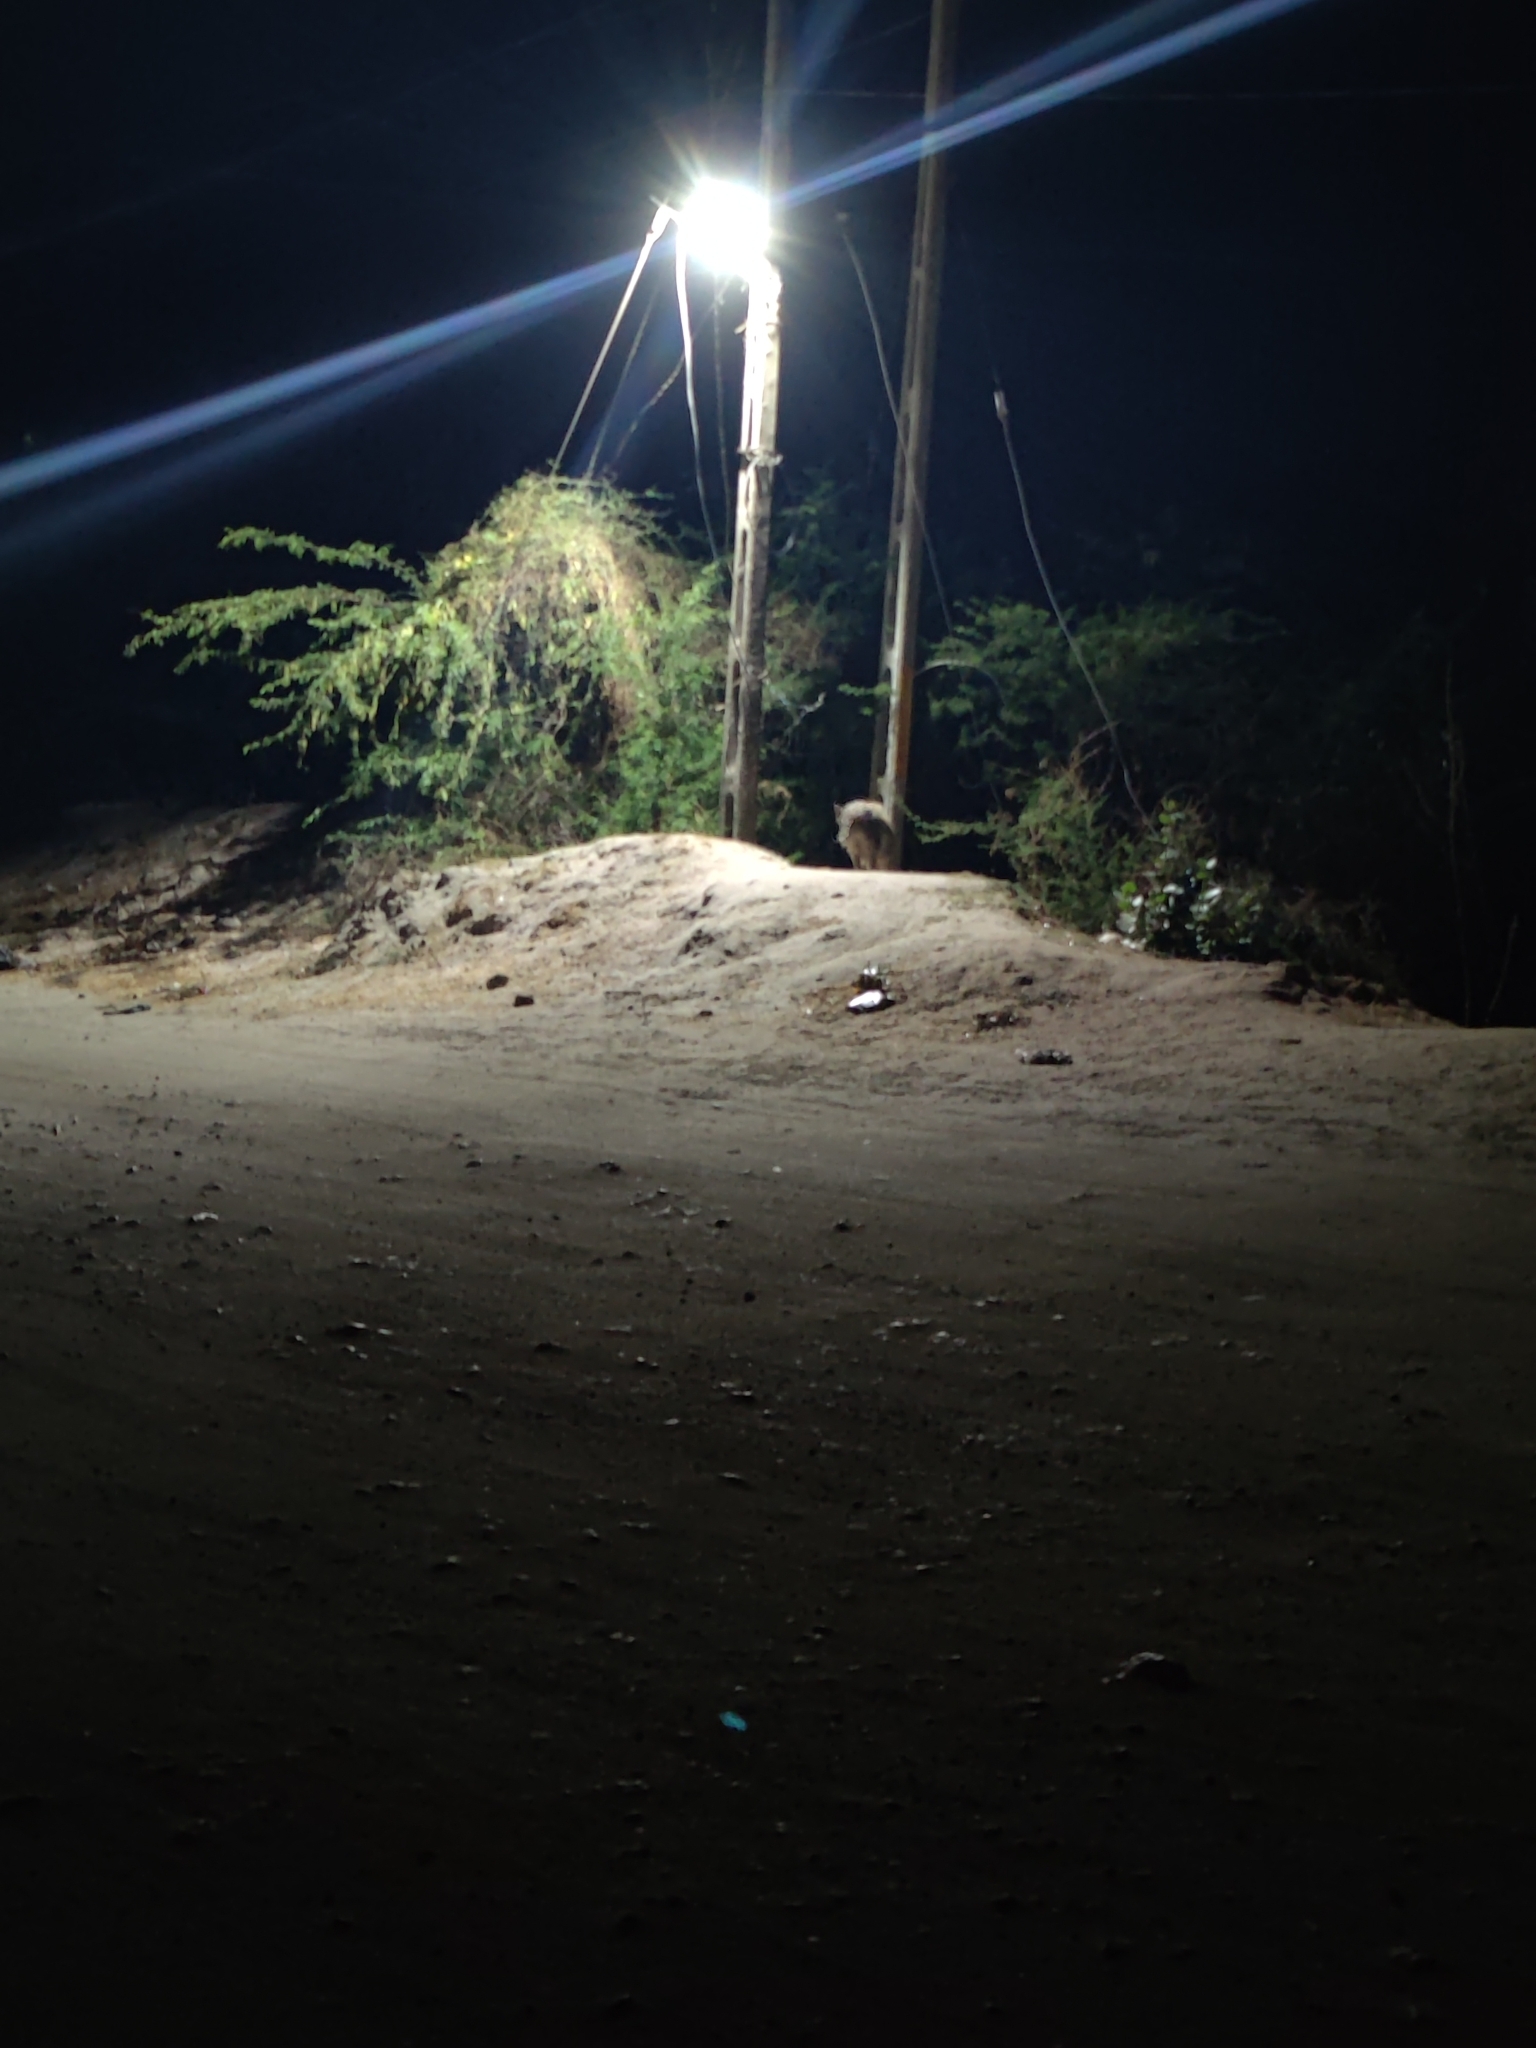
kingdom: Animalia
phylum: Chordata
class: Mammalia
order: Artiodactyla
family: Suidae
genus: Sus
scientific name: Sus scrofa
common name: Wild boar
